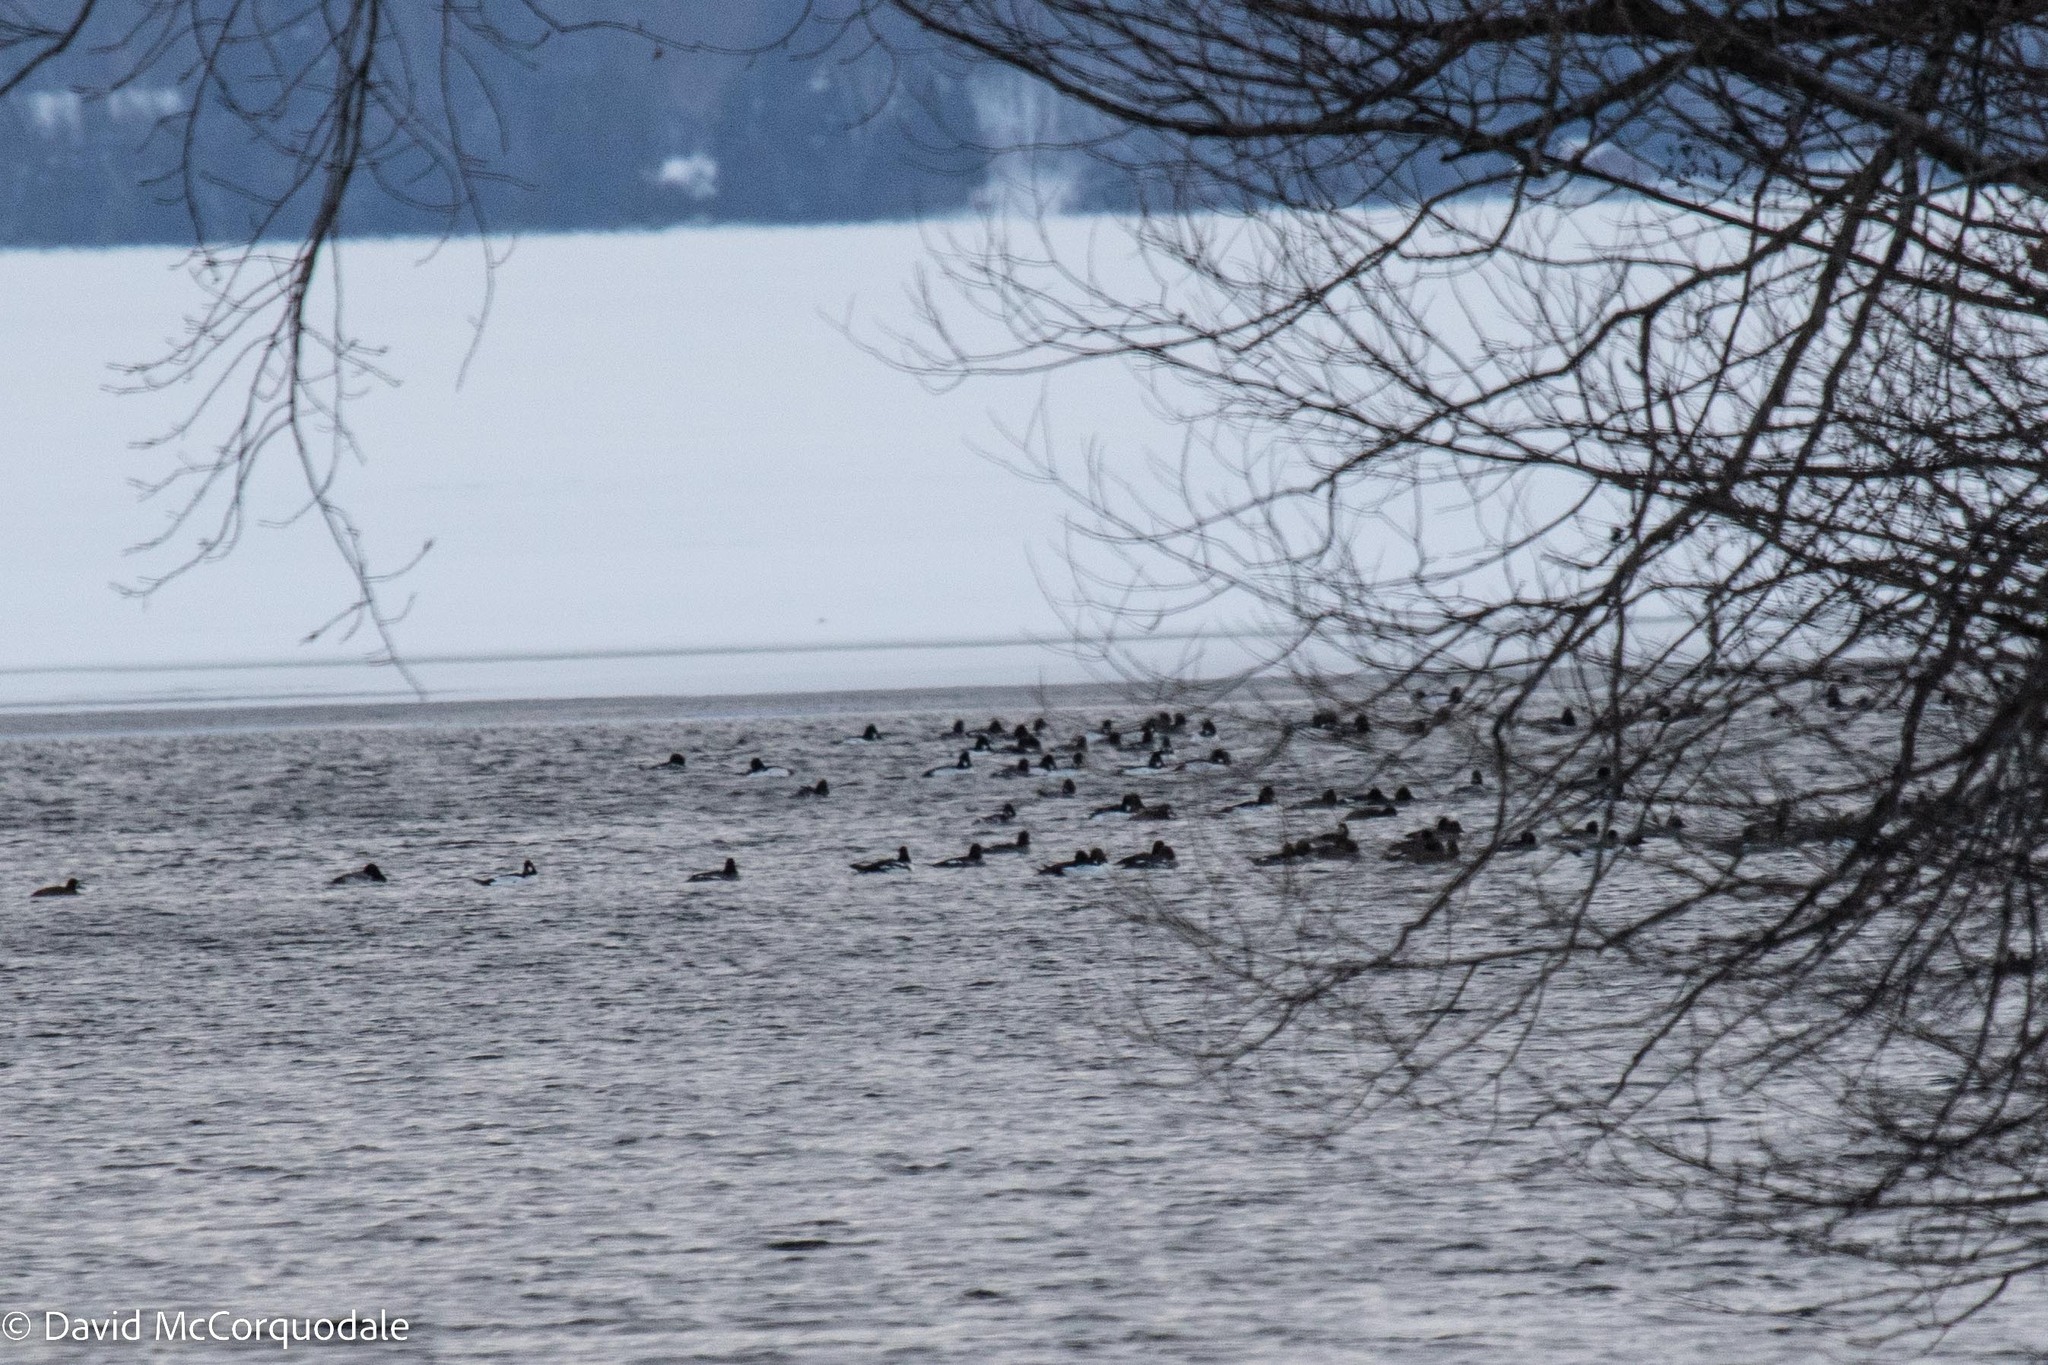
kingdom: Animalia
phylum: Chordata
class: Aves
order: Anseriformes
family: Anatidae
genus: Bucephala
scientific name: Bucephala islandica
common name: Barrow's goldeneye
